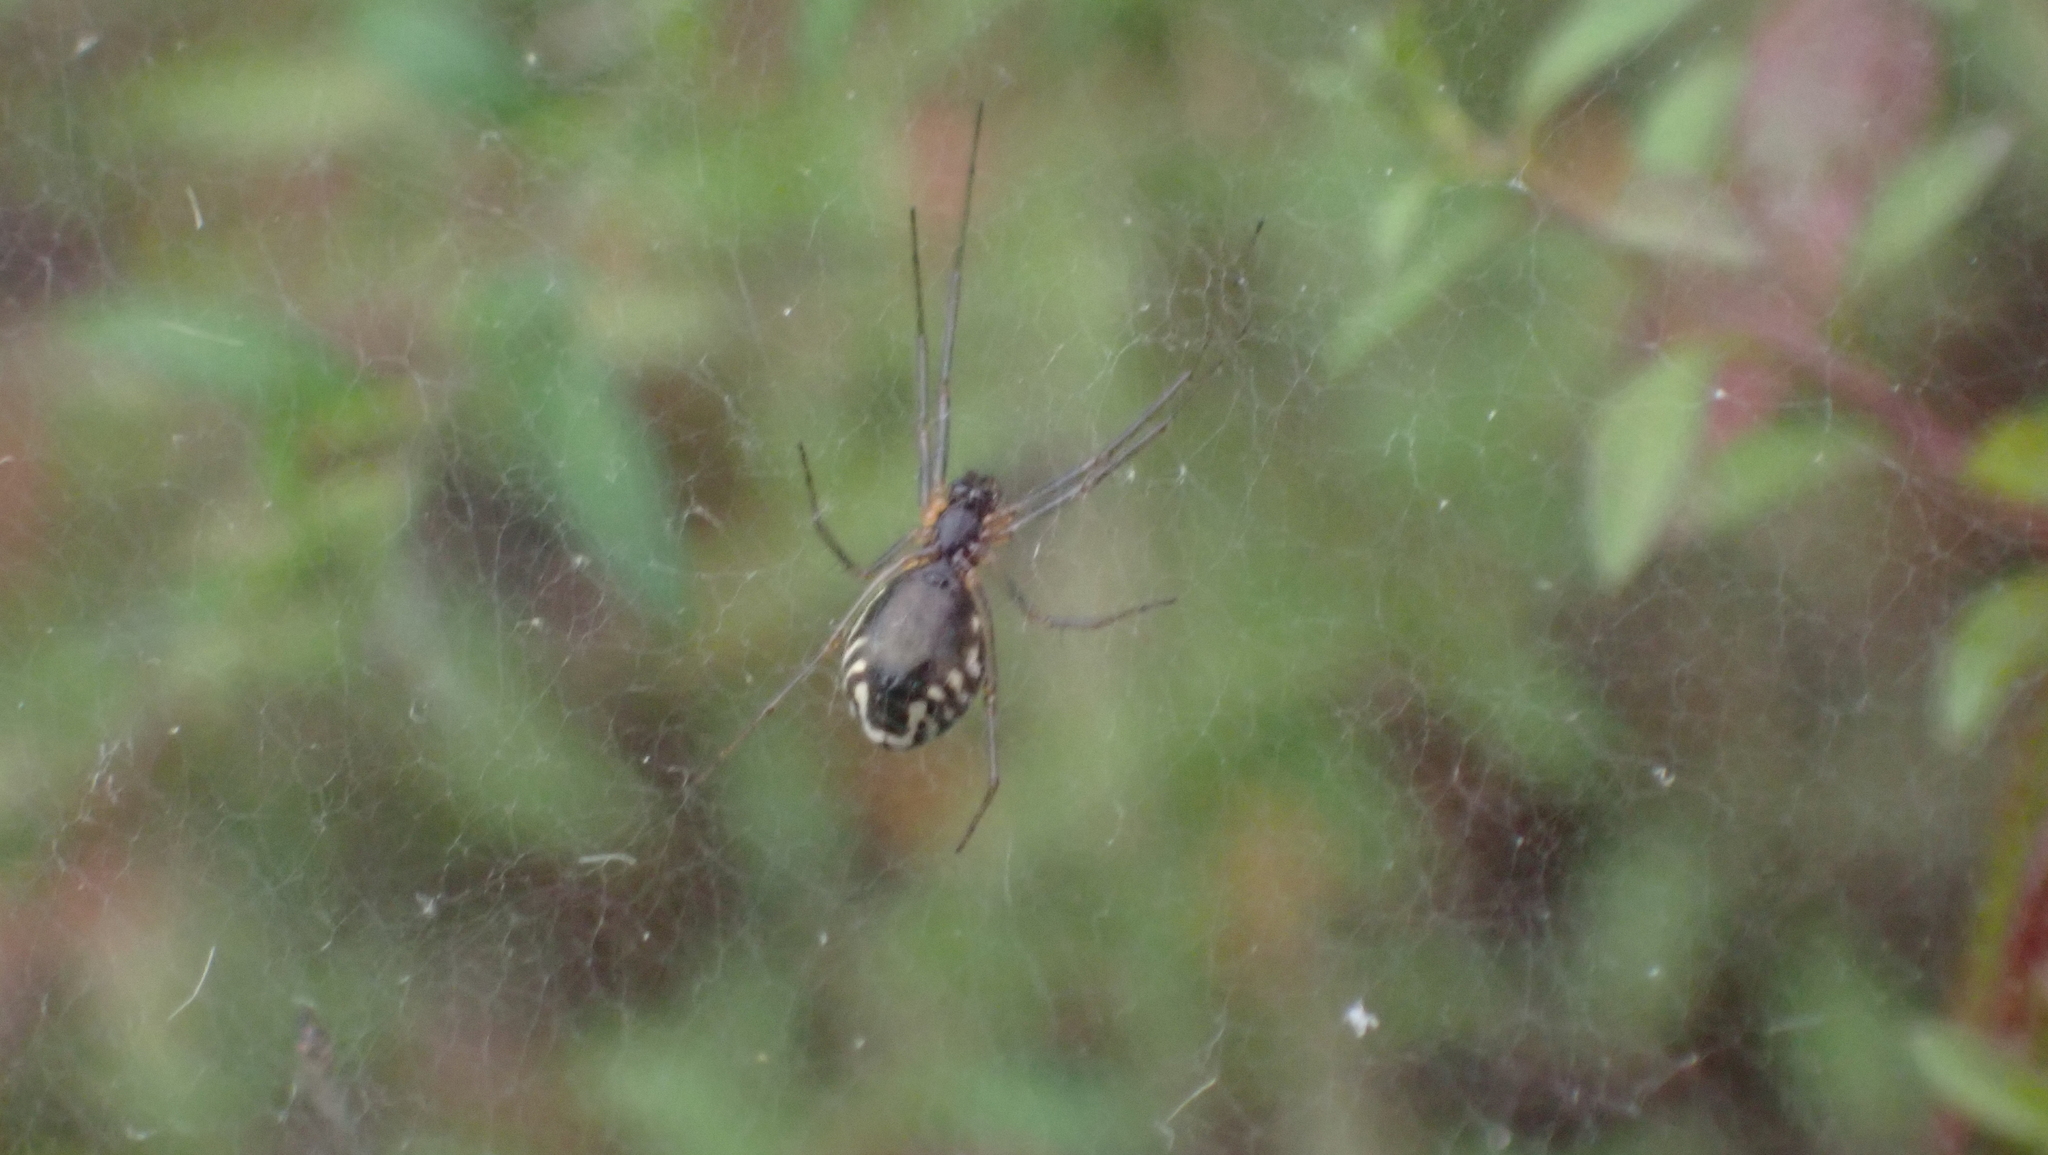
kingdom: Animalia
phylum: Arthropoda
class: Arachnida
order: Araneae
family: Linyphiidae
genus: Frontinella
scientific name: Frontinella pyramitela
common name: Bowl-and-doily spider
